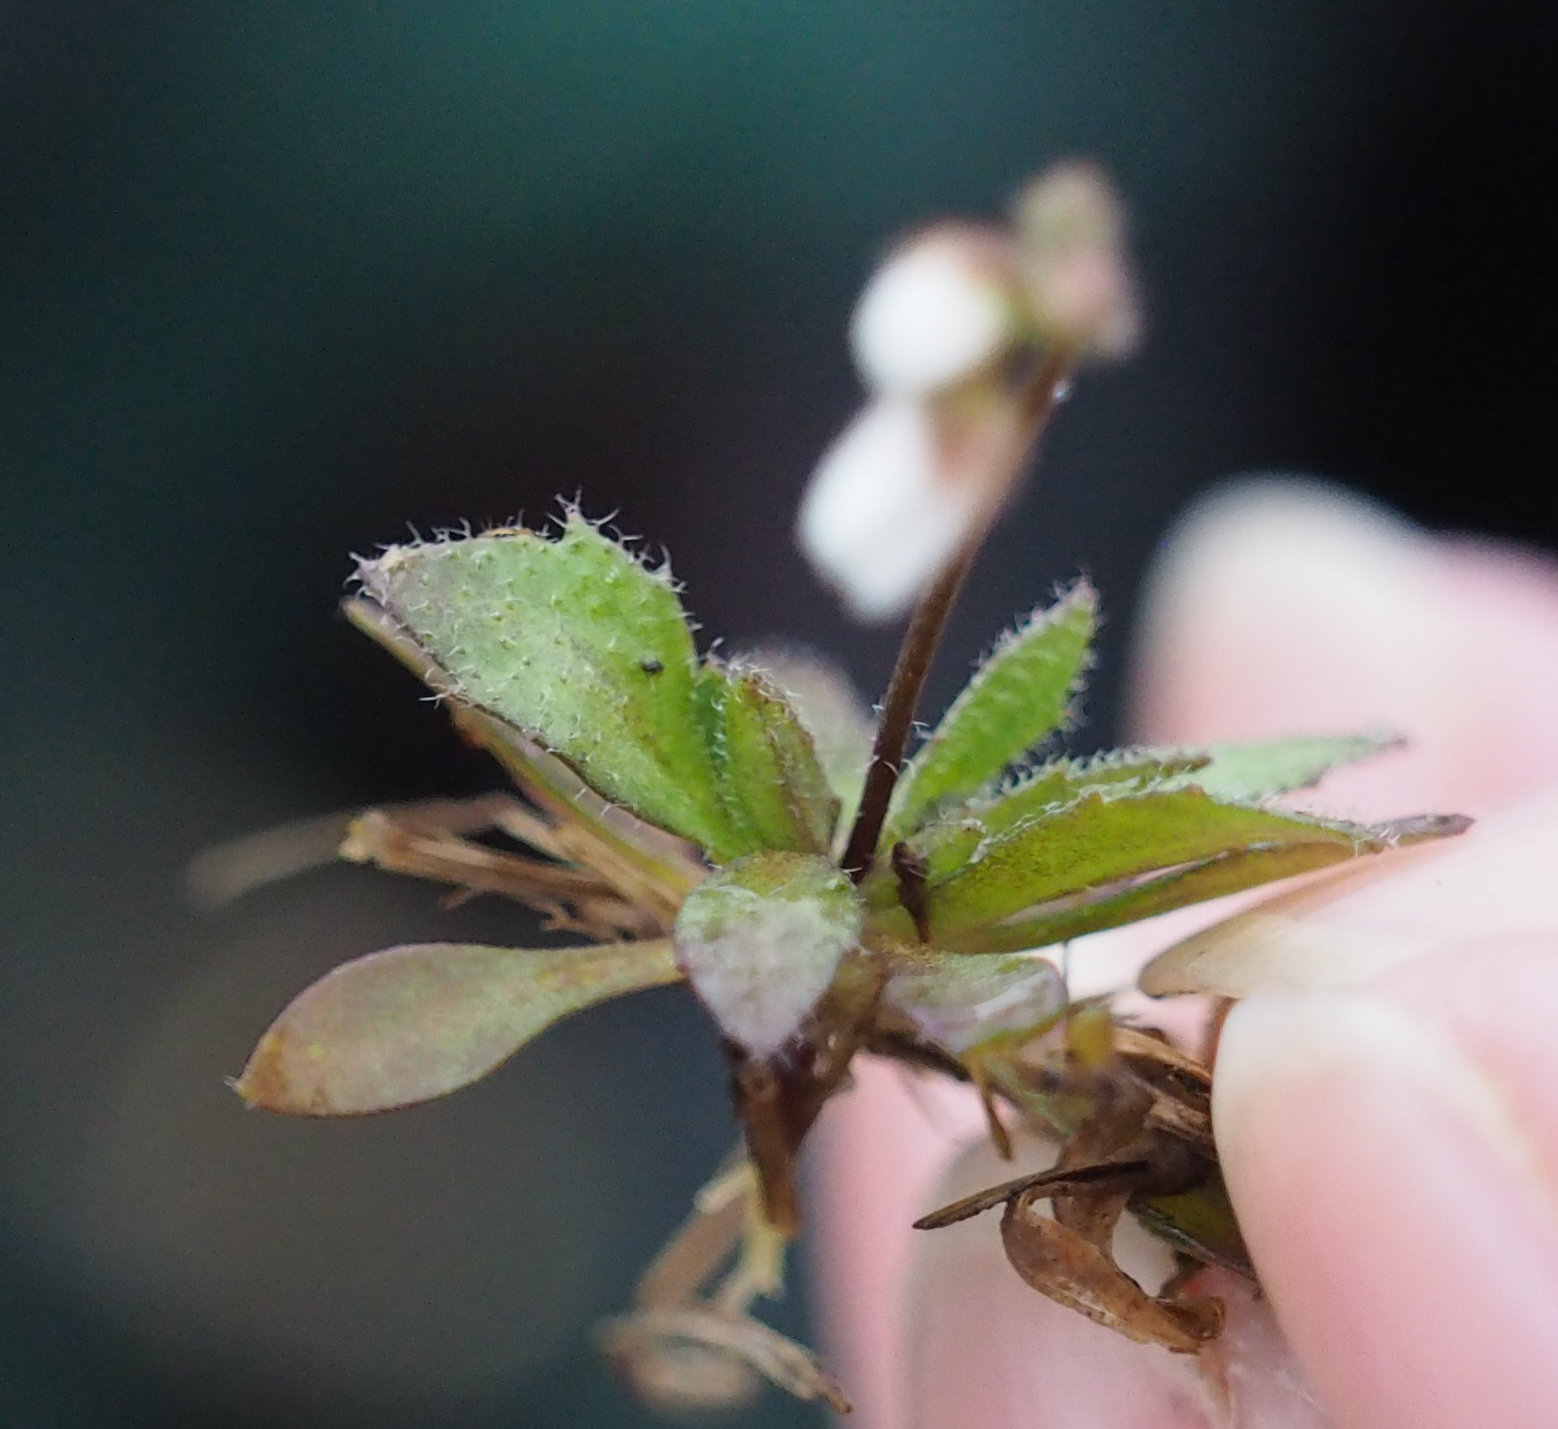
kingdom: Plantae
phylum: Tracheophyta
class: Magnoliopsida
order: Brassicales
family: Brassicaceae
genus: Draba
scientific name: Draba verna
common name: Spring draba
